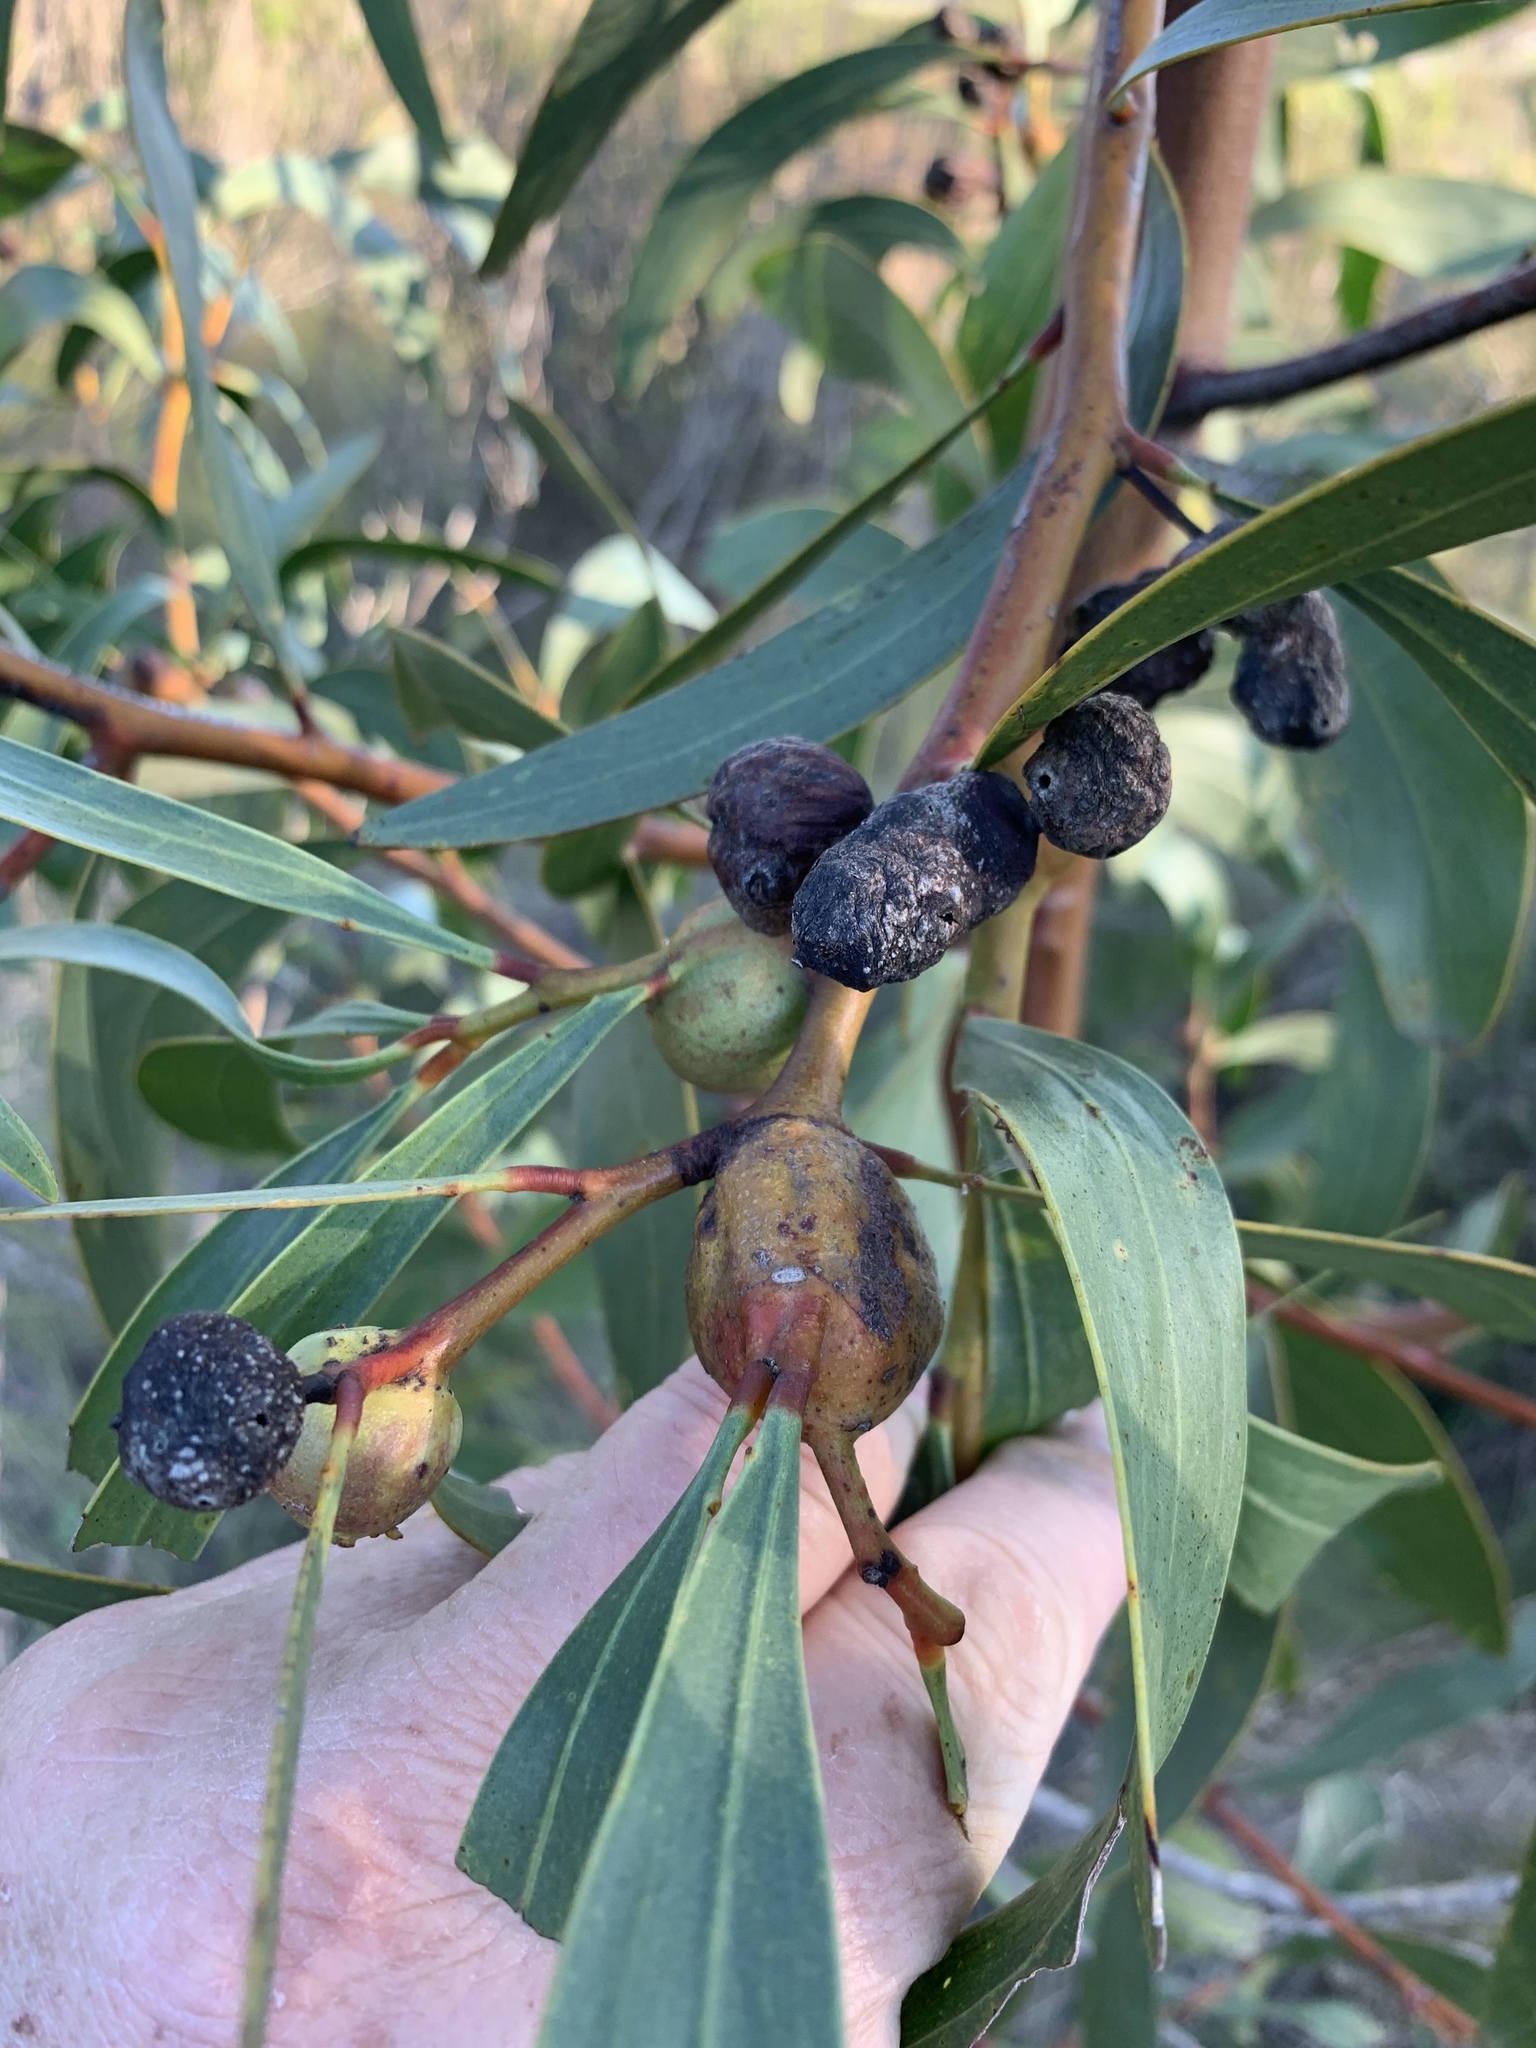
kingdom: Animalia
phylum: Arthropoda
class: Insecta
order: Hymenoptera
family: Pteromalidae
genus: Trichilogaster
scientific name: Trichilogaster signiventris
